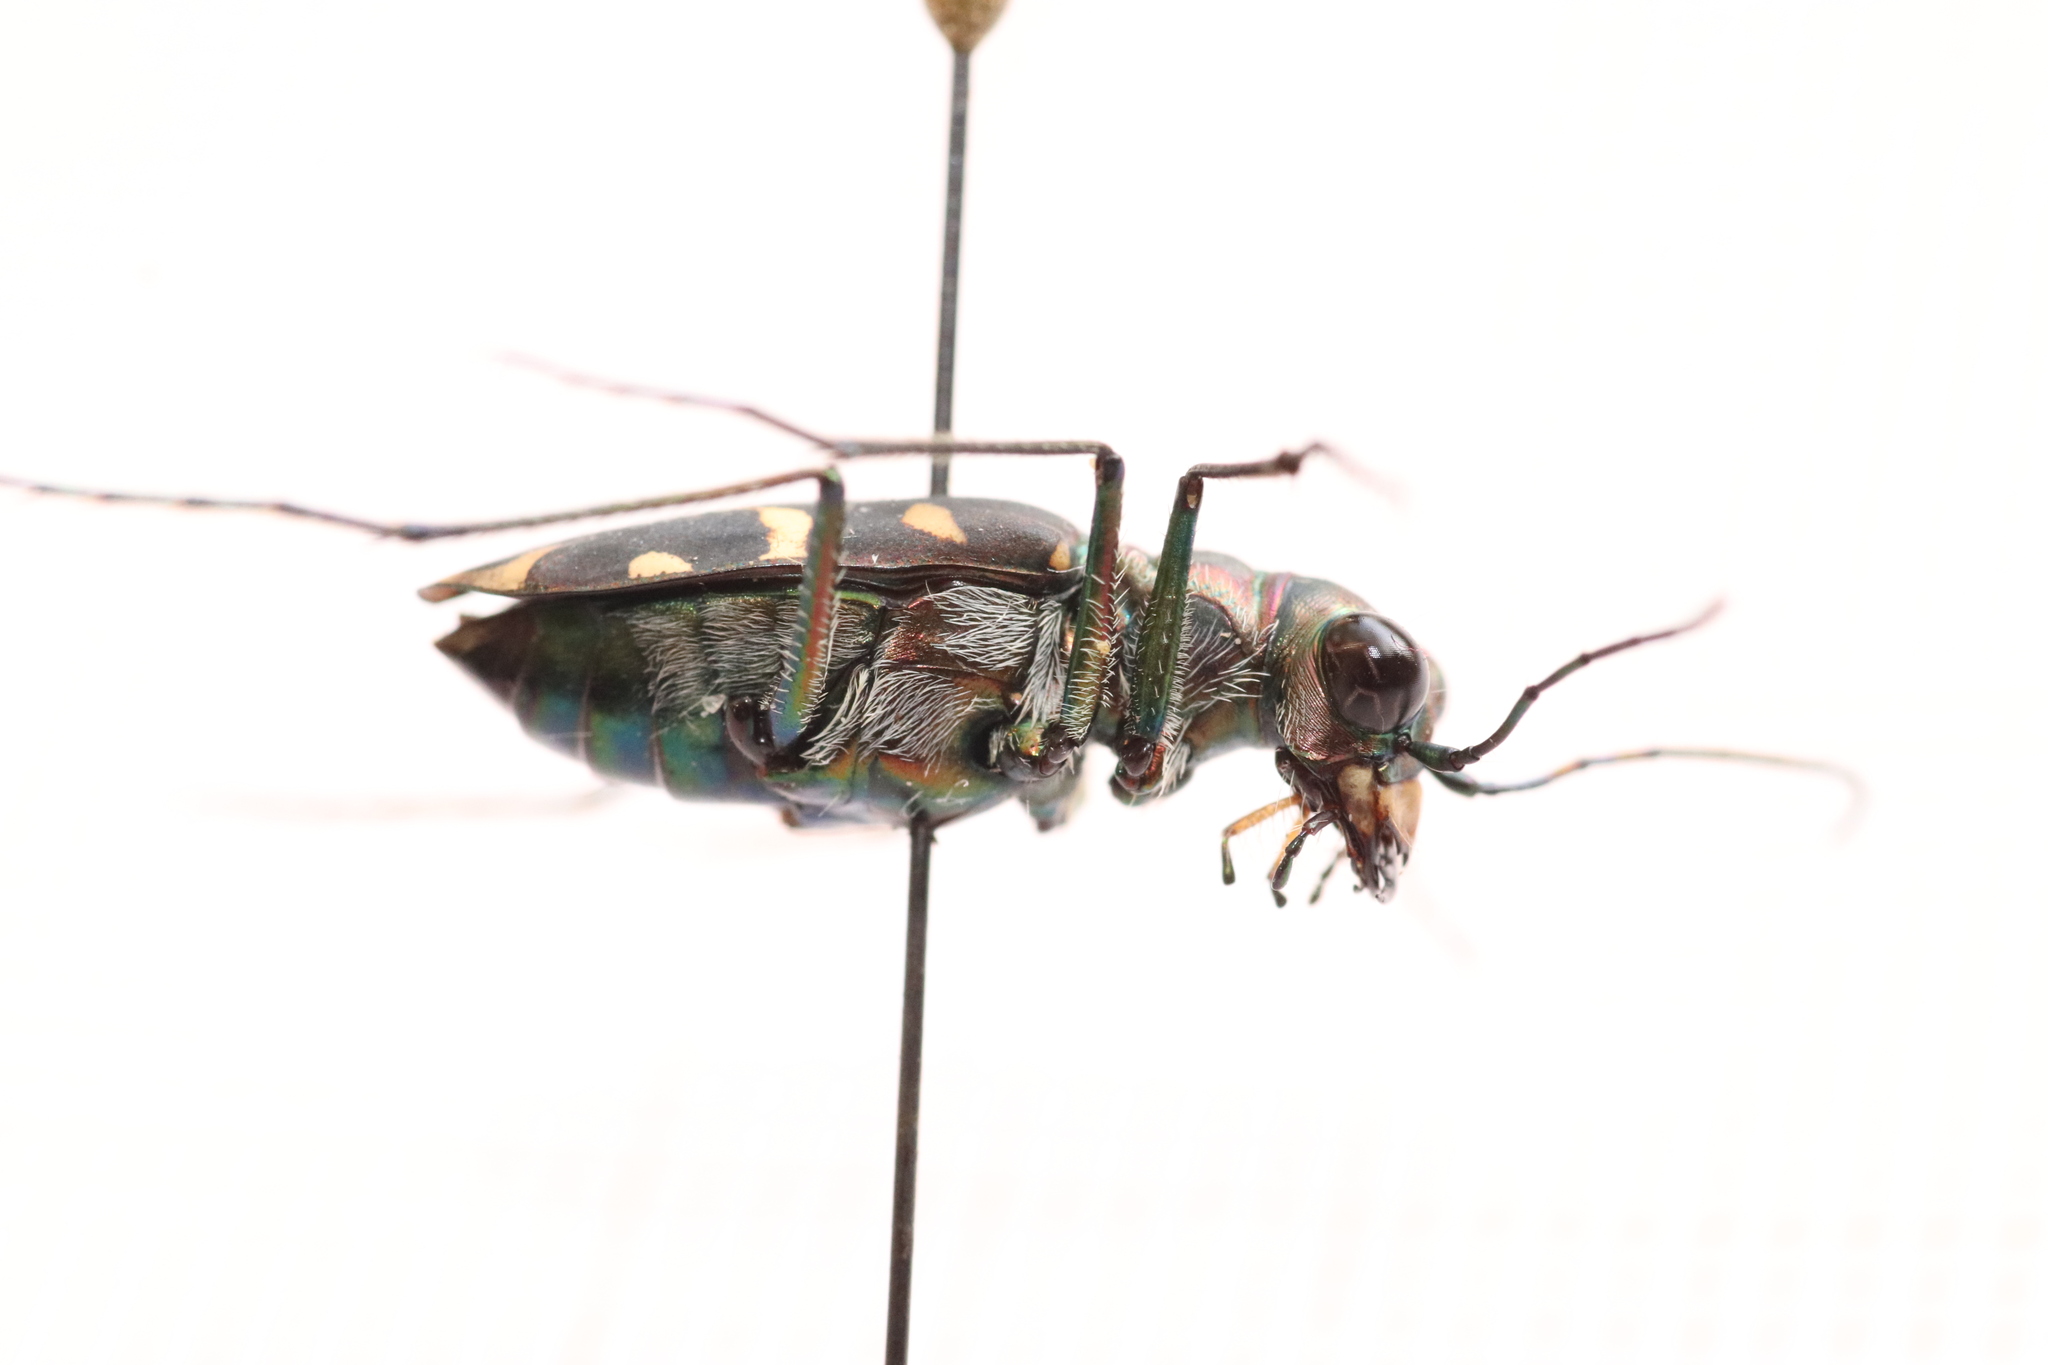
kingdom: Animalia
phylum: Arthropoda
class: Insecta
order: Coleoptera
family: Carabidae
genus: Cicindela
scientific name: Cicindela decemguttata
